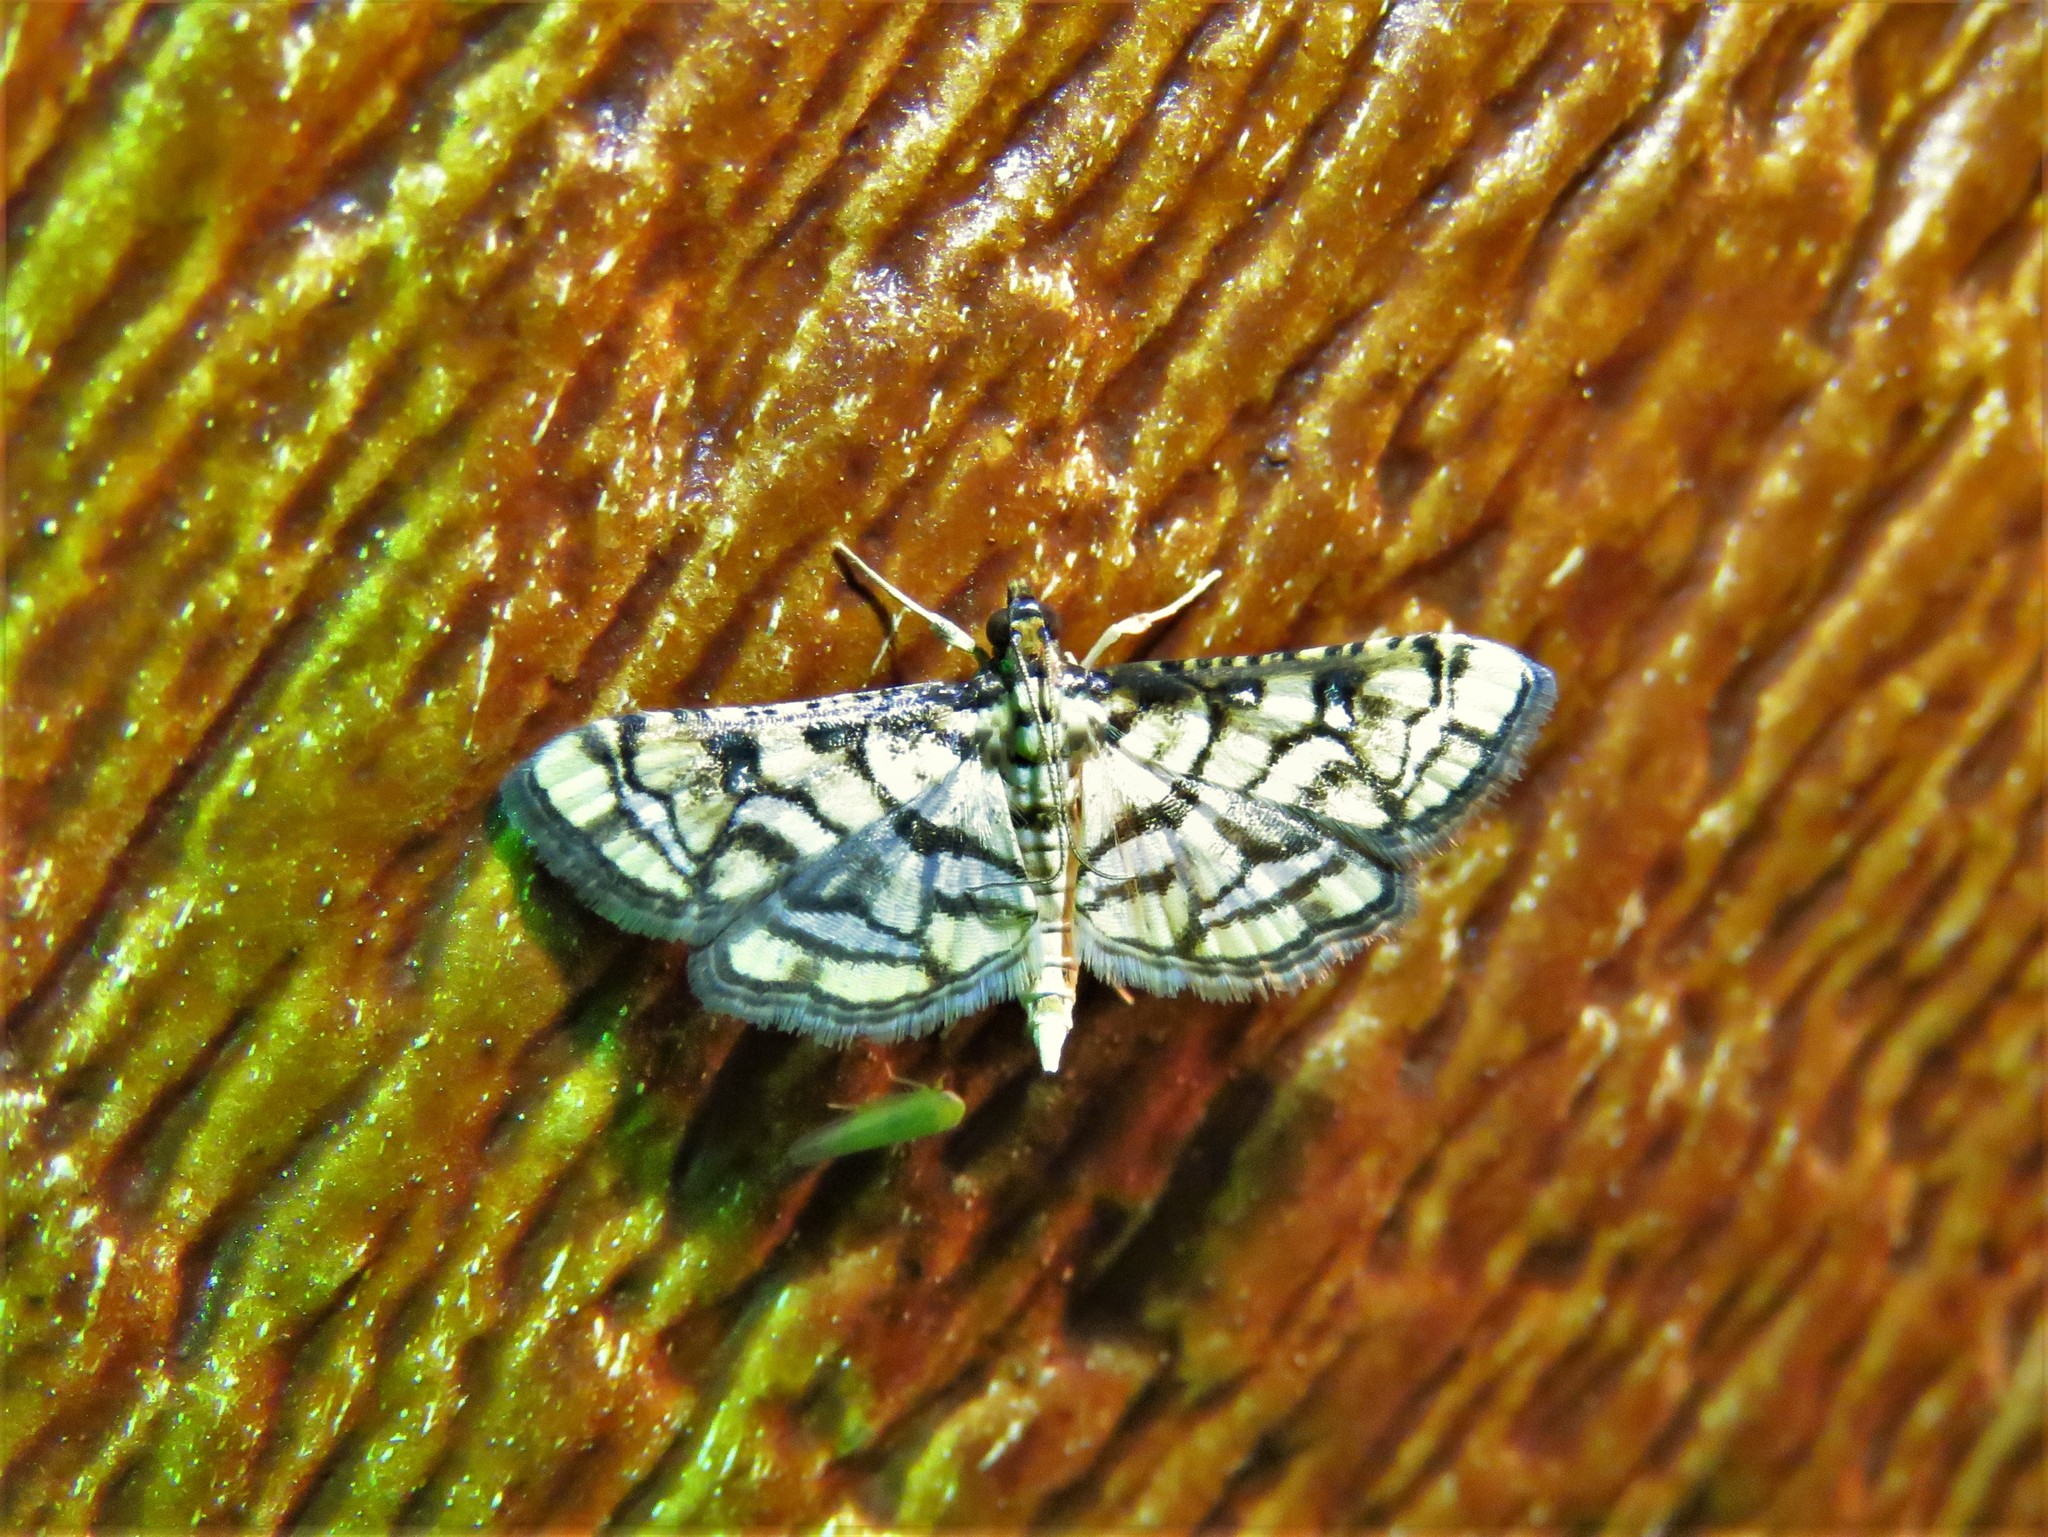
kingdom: Animalia
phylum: Arthropoda
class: Insecta
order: Lepidoptera
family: Crambidae
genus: Hileithia
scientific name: Hileithia magualis
